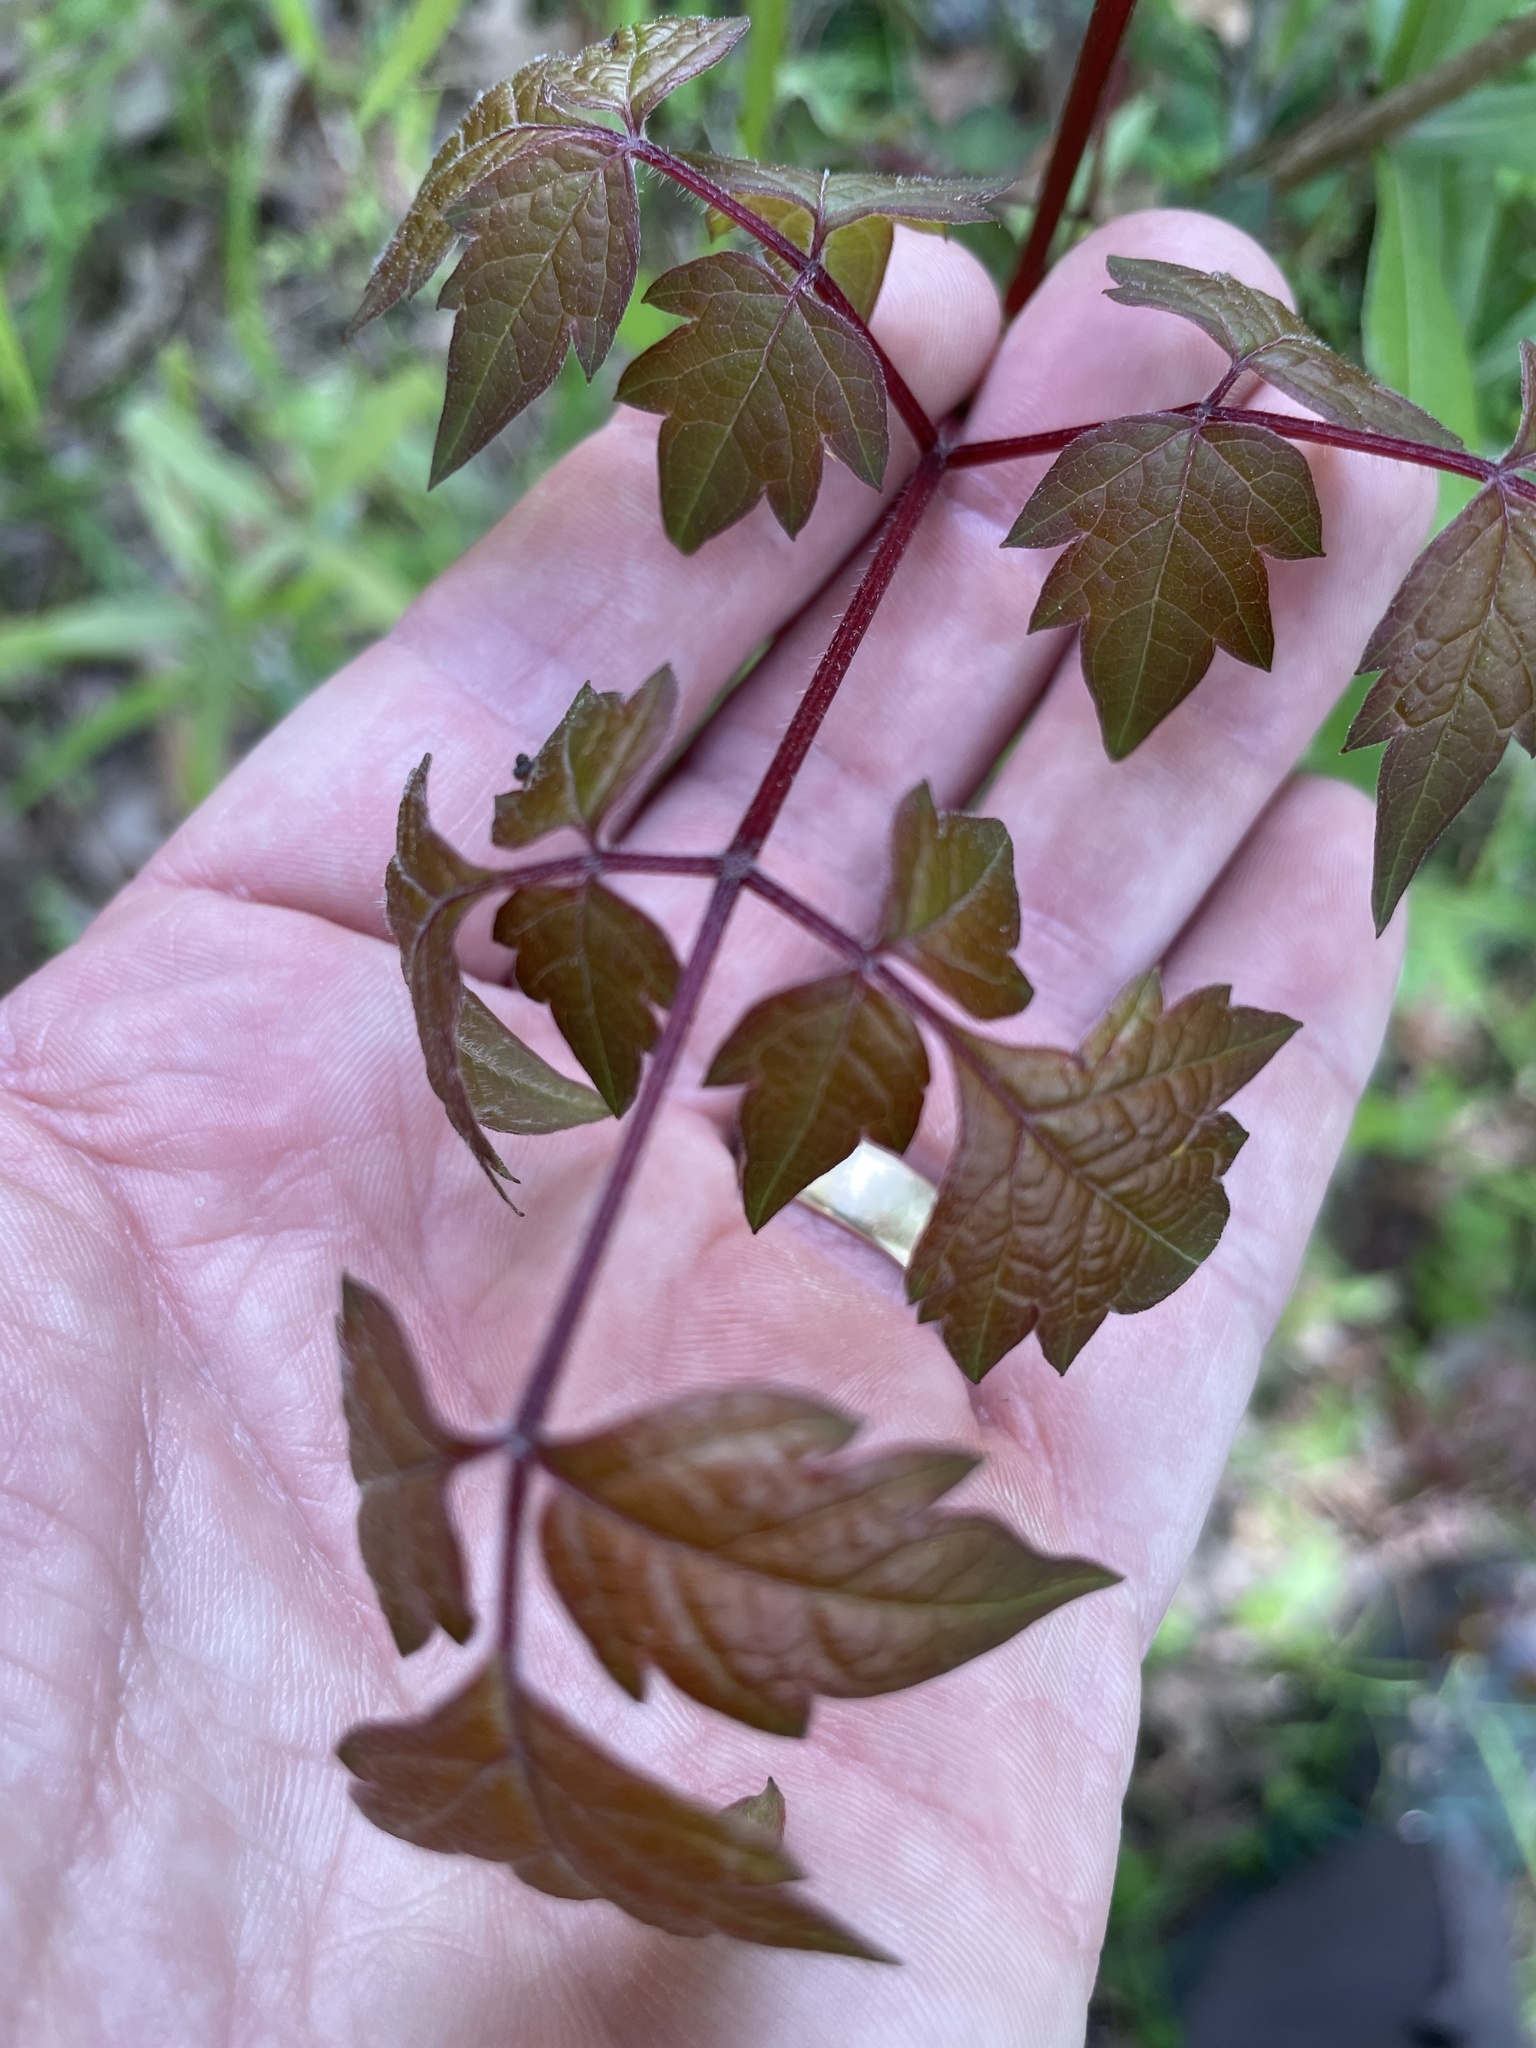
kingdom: Plantae
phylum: Tracheophyta
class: Magnoliopsida
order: Vitales
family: Vitaceae
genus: Nekemias
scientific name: Nekemias arborea
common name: Peppervine
